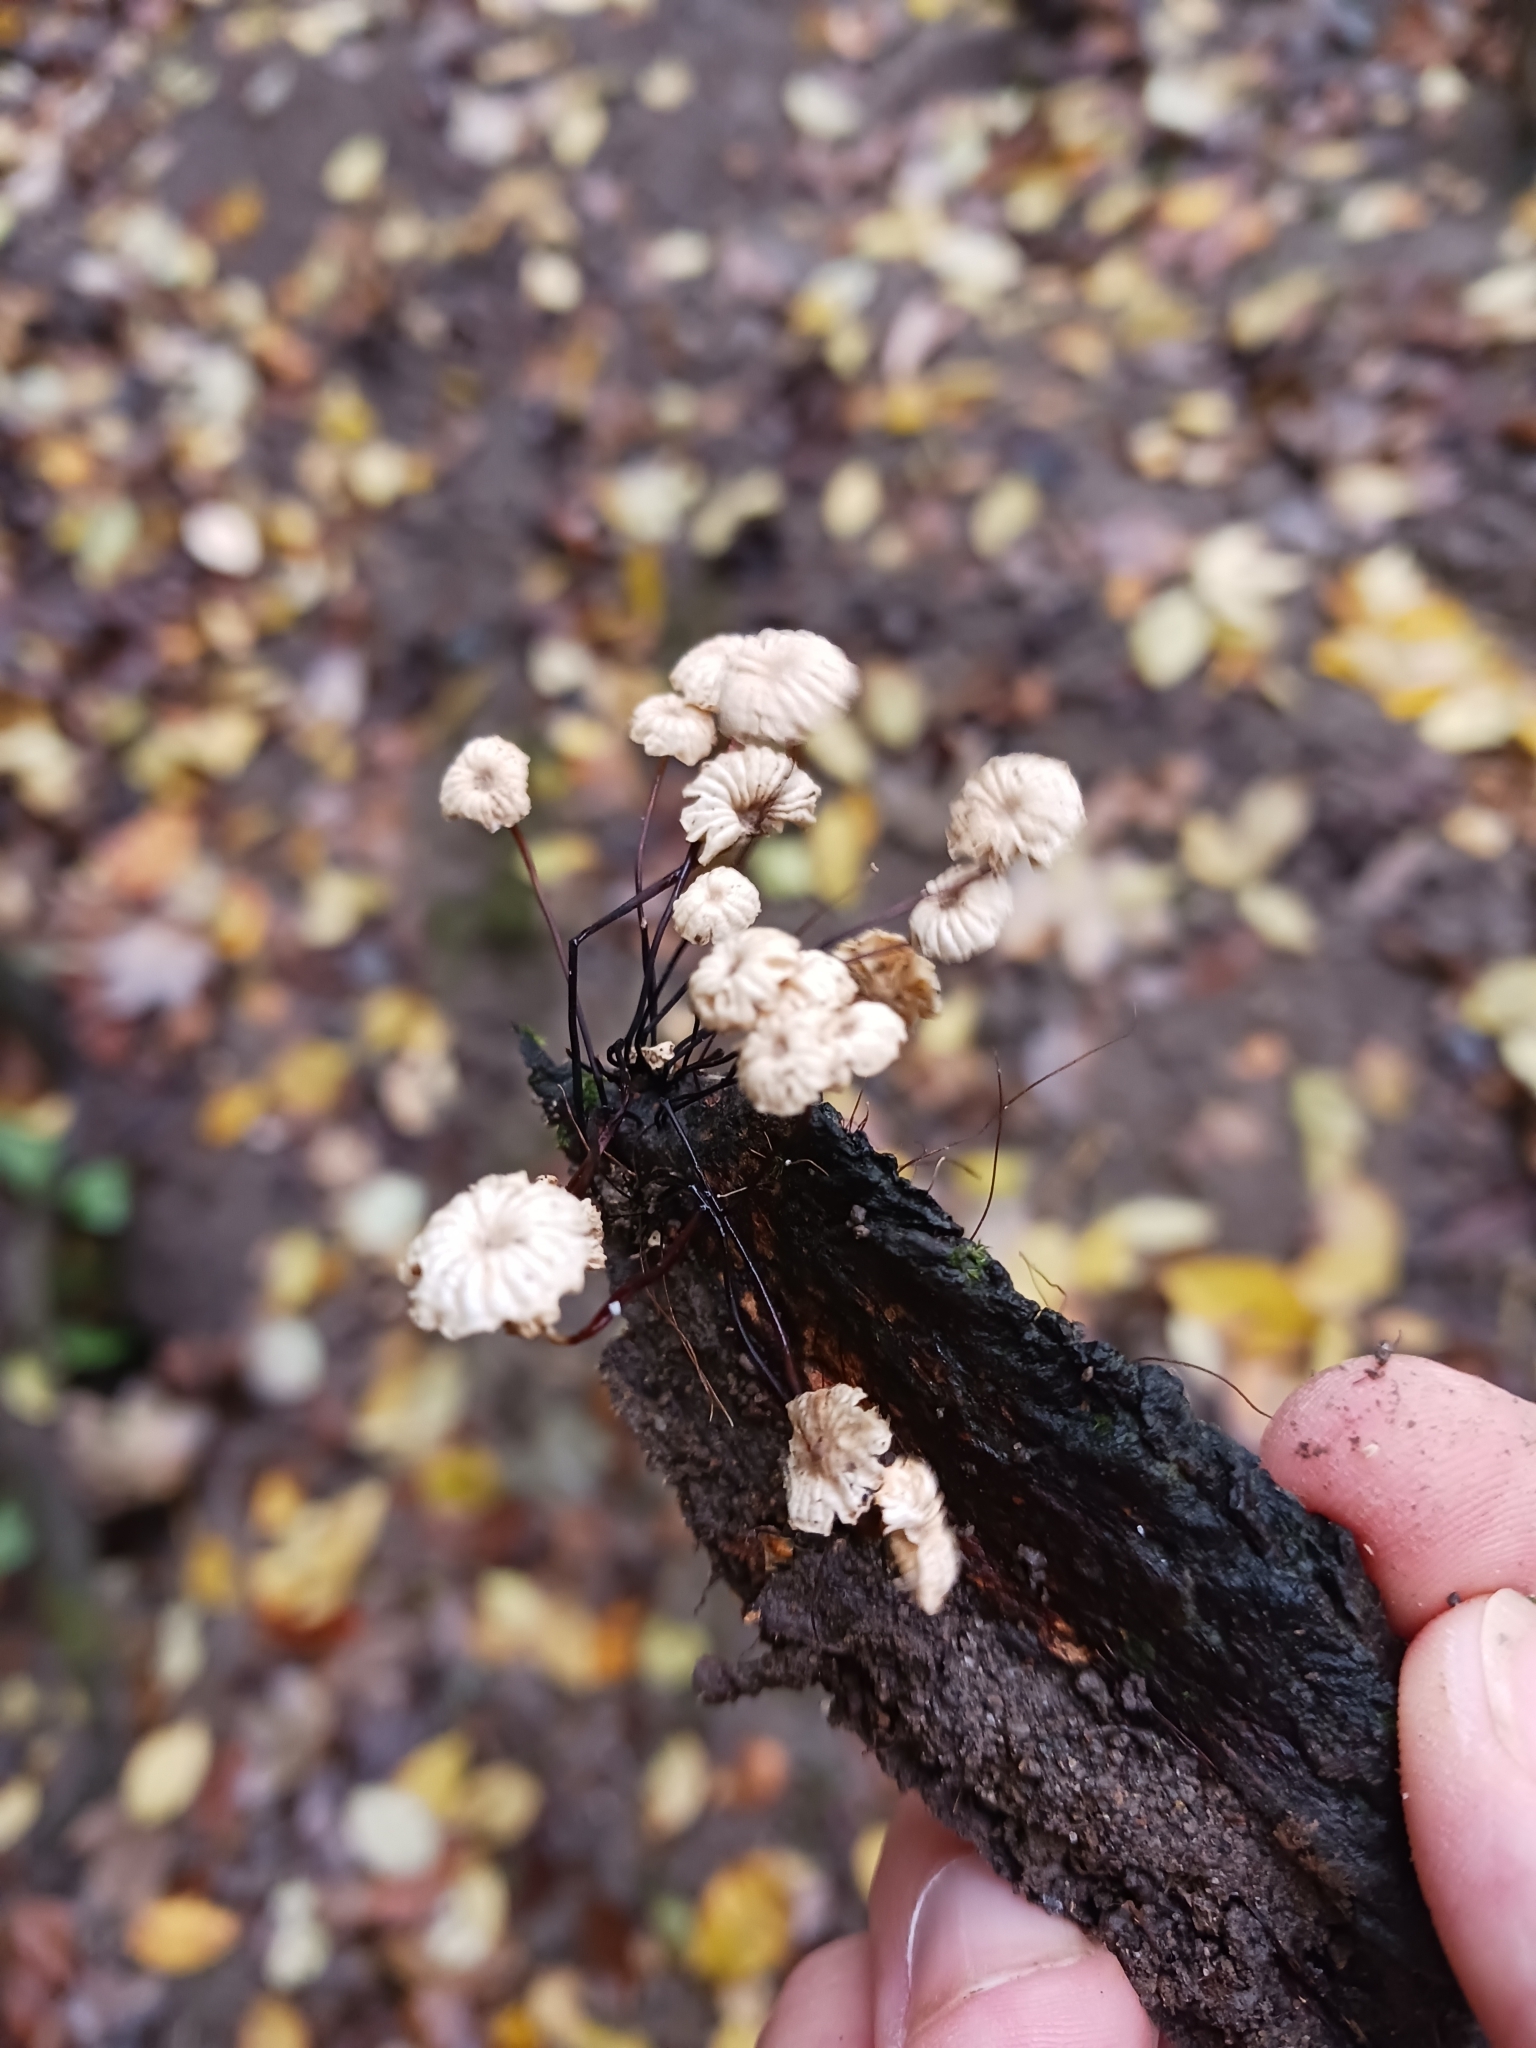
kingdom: Fungi
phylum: Basidiomycota
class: Agaricomycetes
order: Agaricales
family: Marasmiaceae
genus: Marasmius
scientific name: Marasmius rotula
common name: Collared parachute
